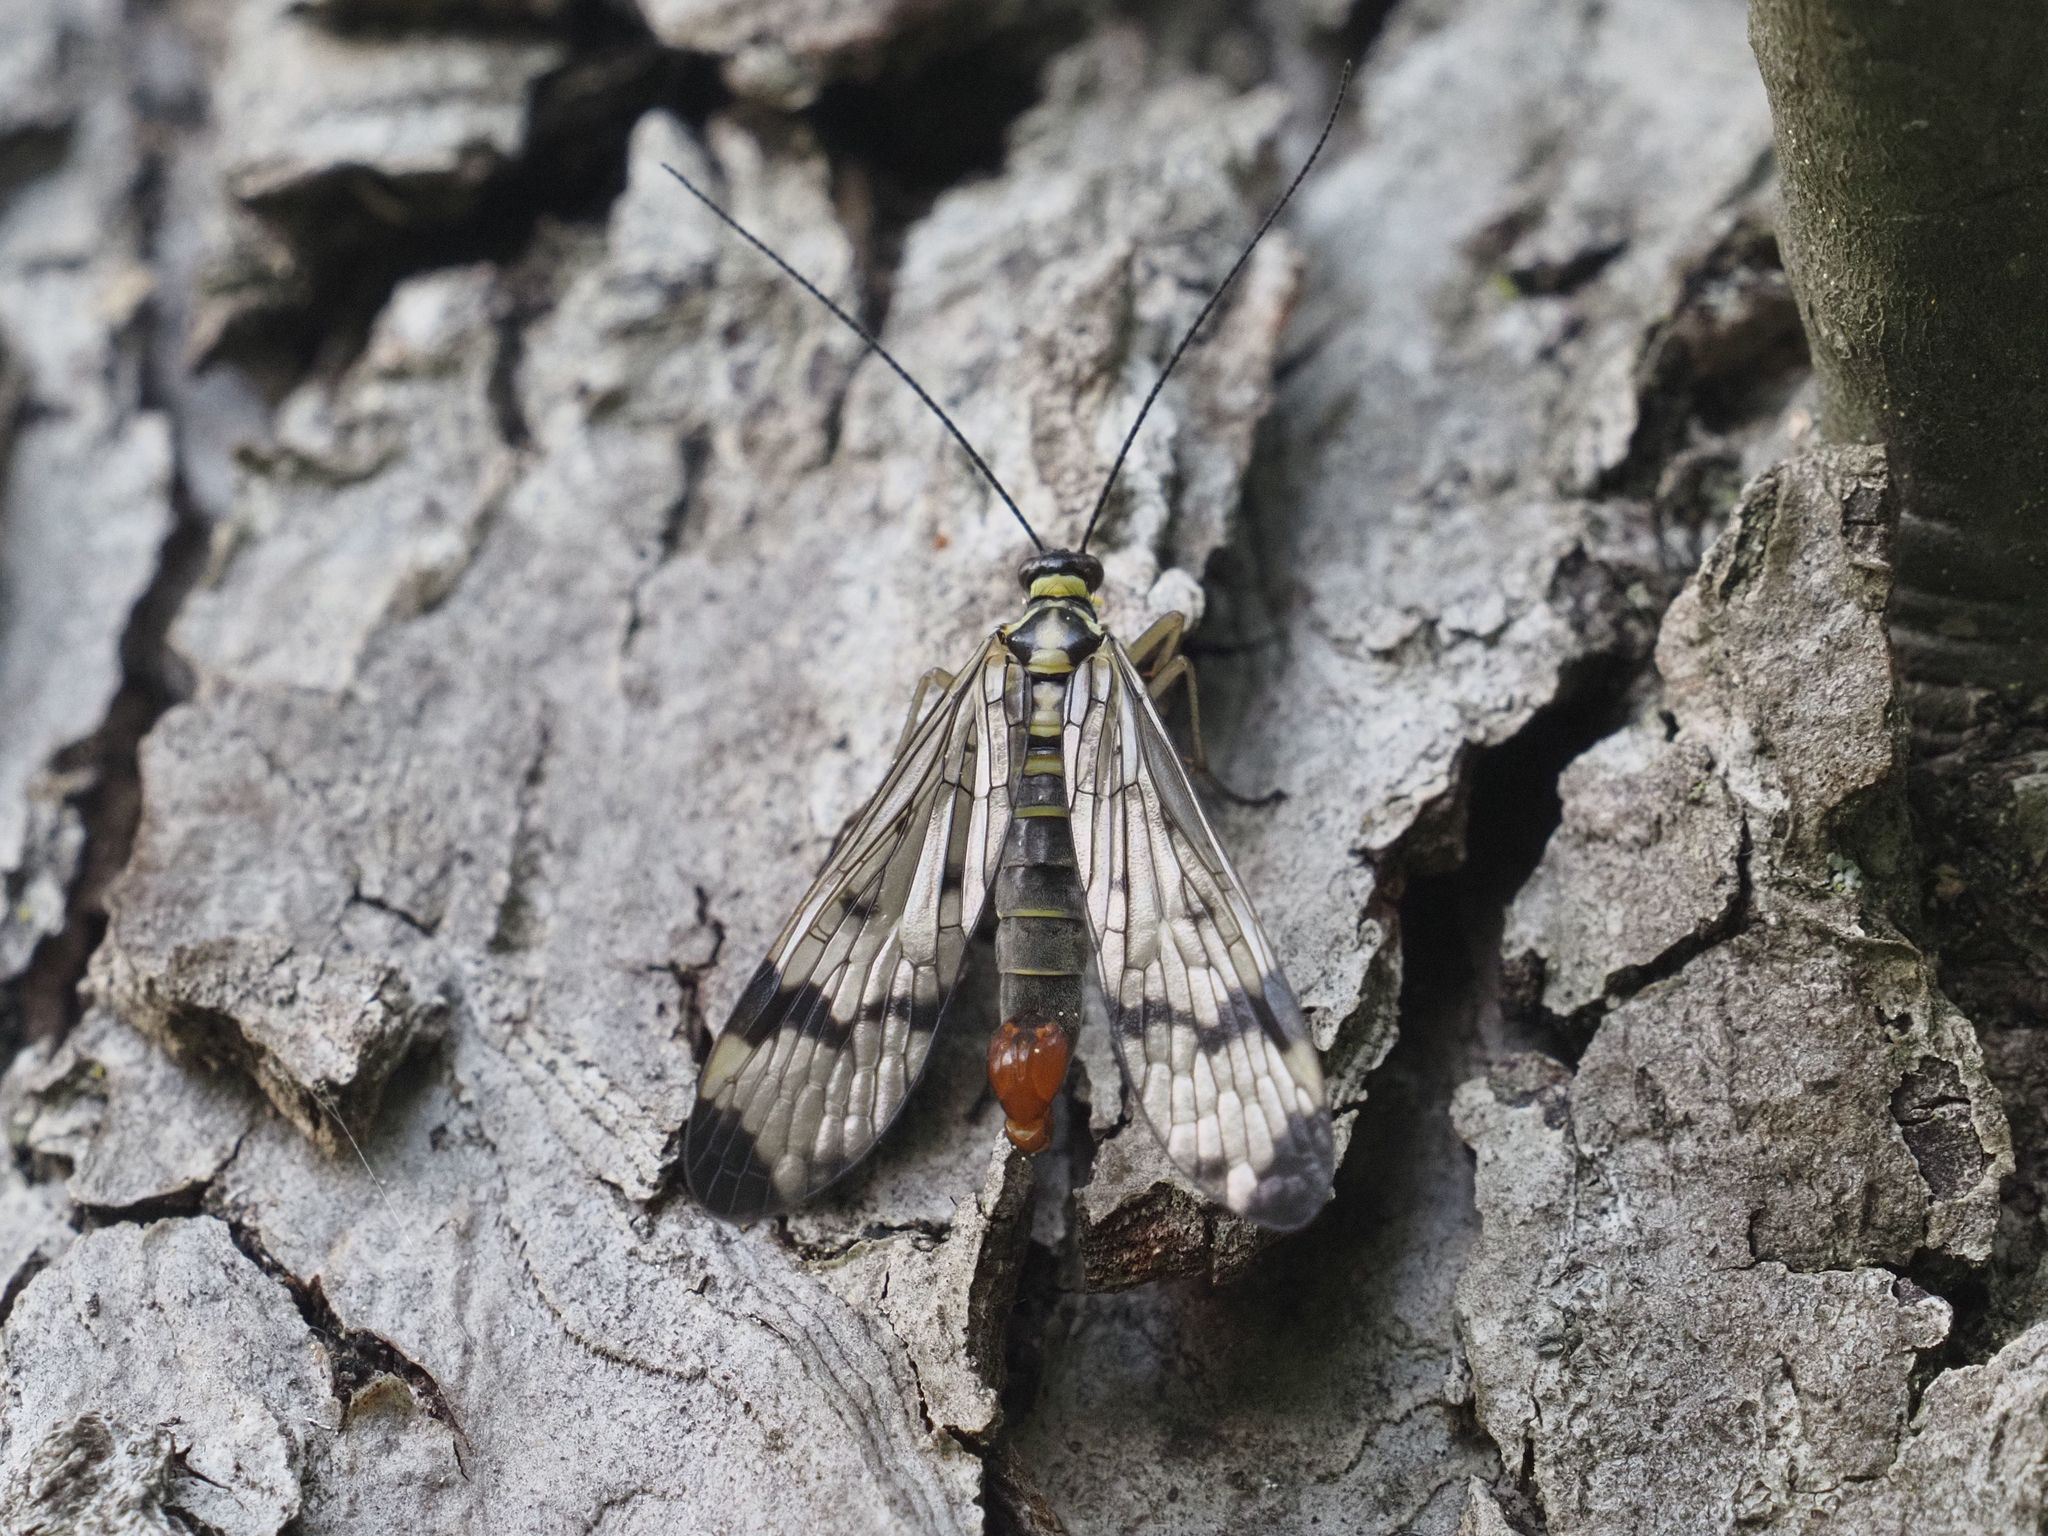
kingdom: Animalia
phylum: Arthropoda
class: Insecta
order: Mecoptera
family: Panorpidae
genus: Panorpa
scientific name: Panorpa communis
